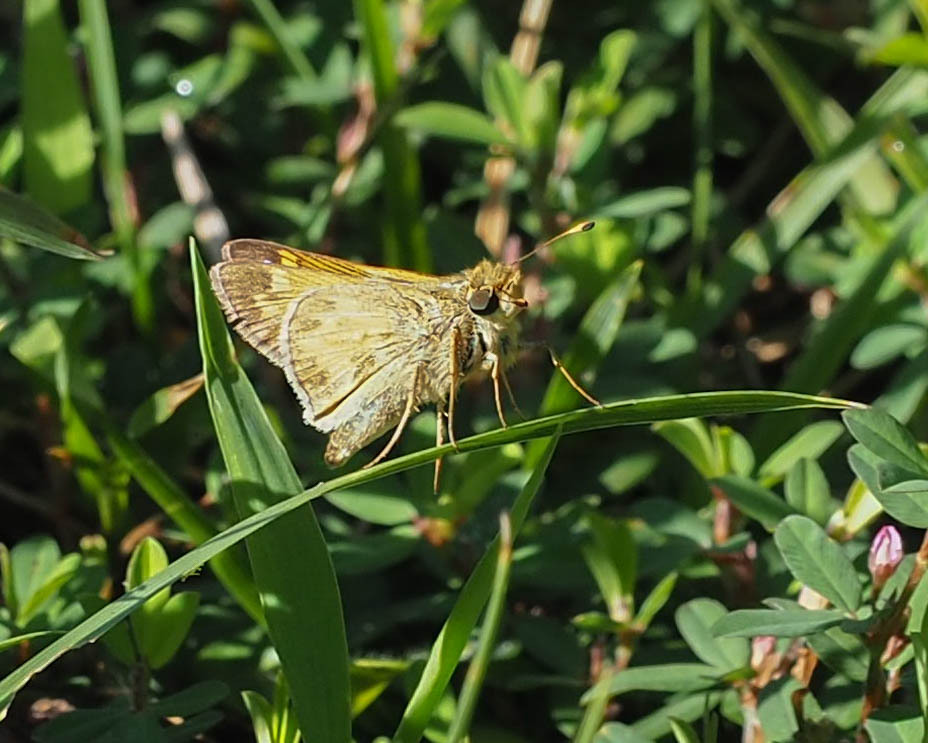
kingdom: Animalia
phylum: Arthropoda
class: Insecta
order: Lepidoptera
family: Hesperiidae
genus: Atalopedes
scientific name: Atalopedes
